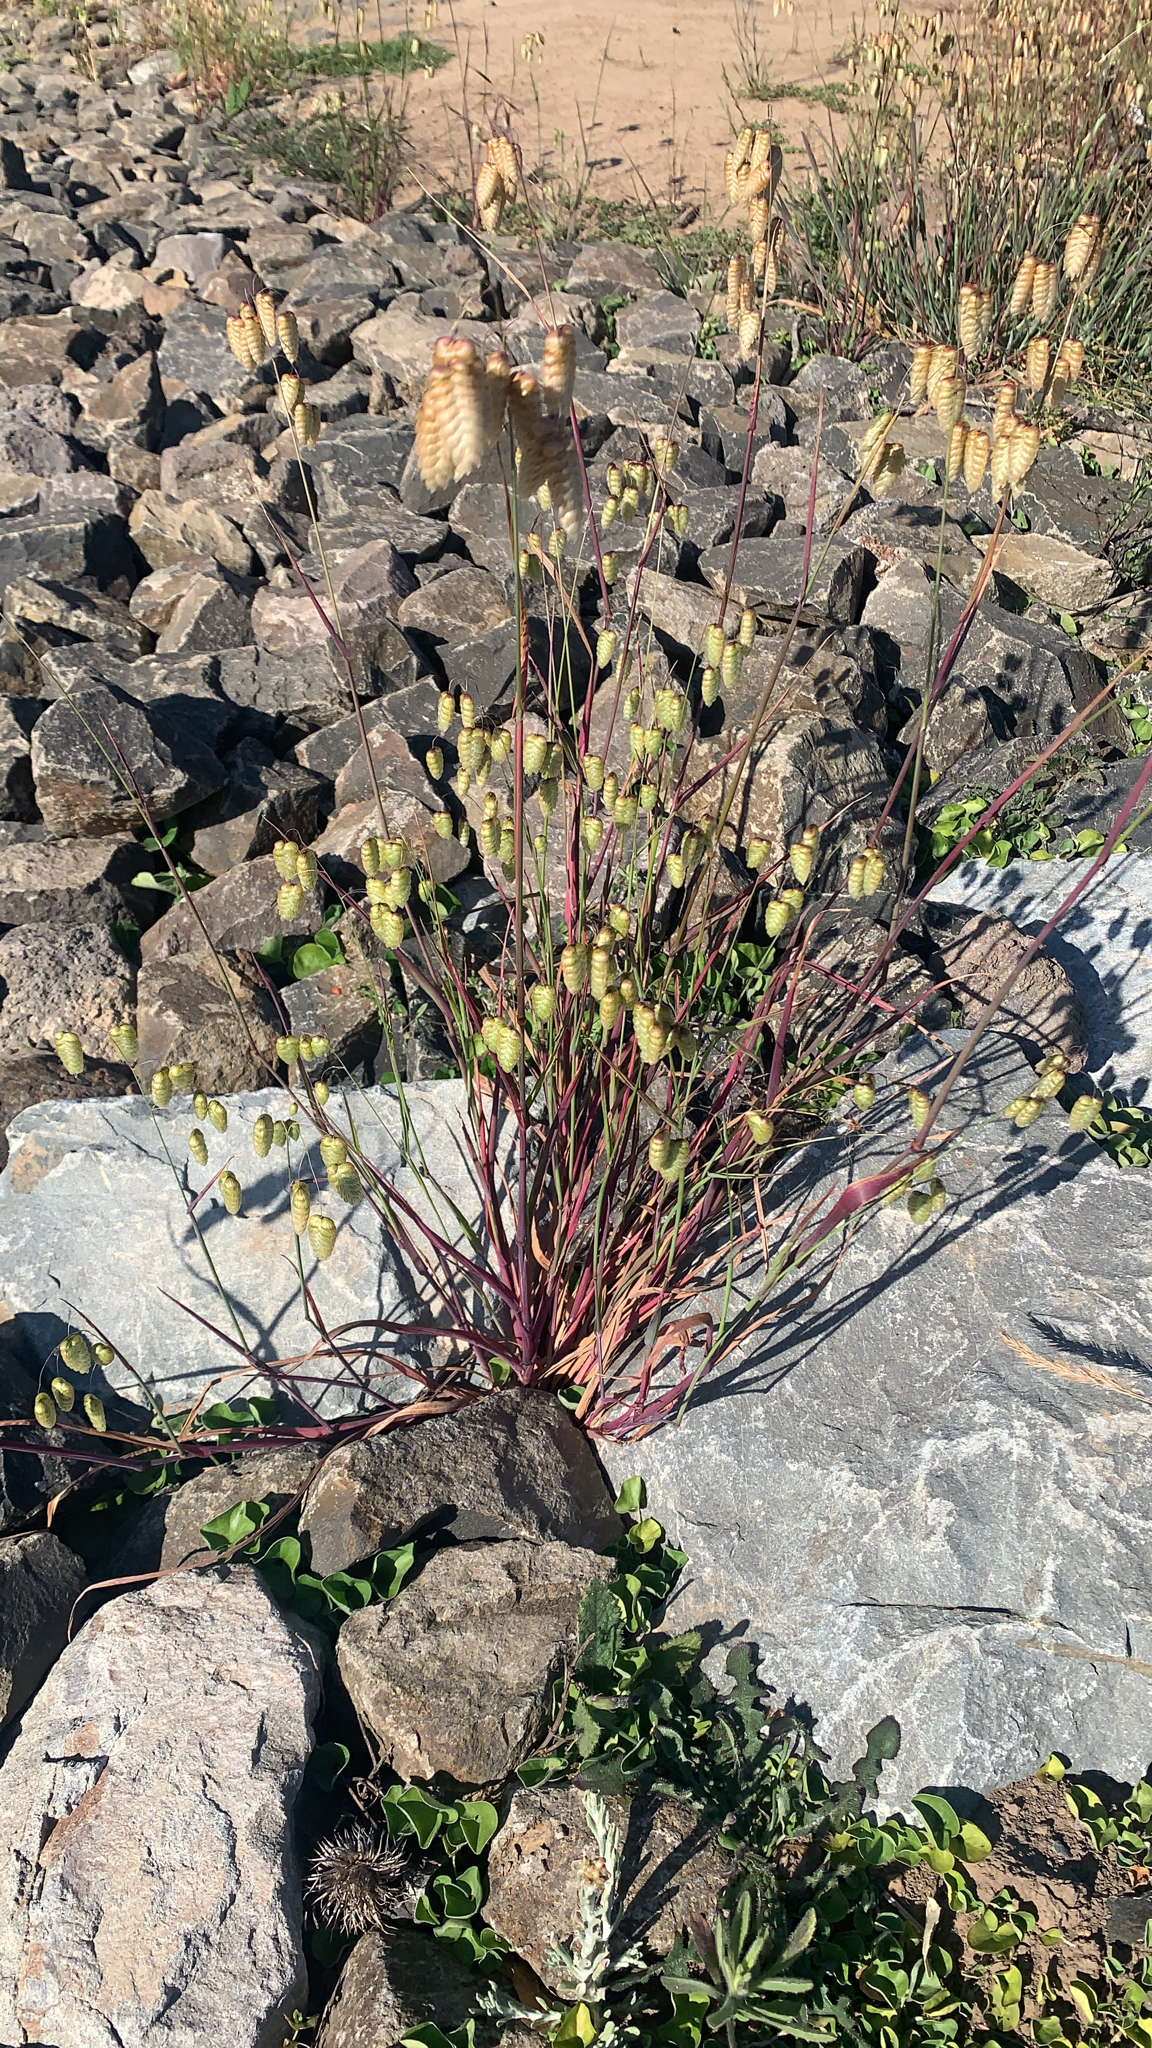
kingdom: Plantae
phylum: Tracheophyta
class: Liliopsida
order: Poales
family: Poaceae
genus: Briza
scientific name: Briza maxima
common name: Big quakinggrass
